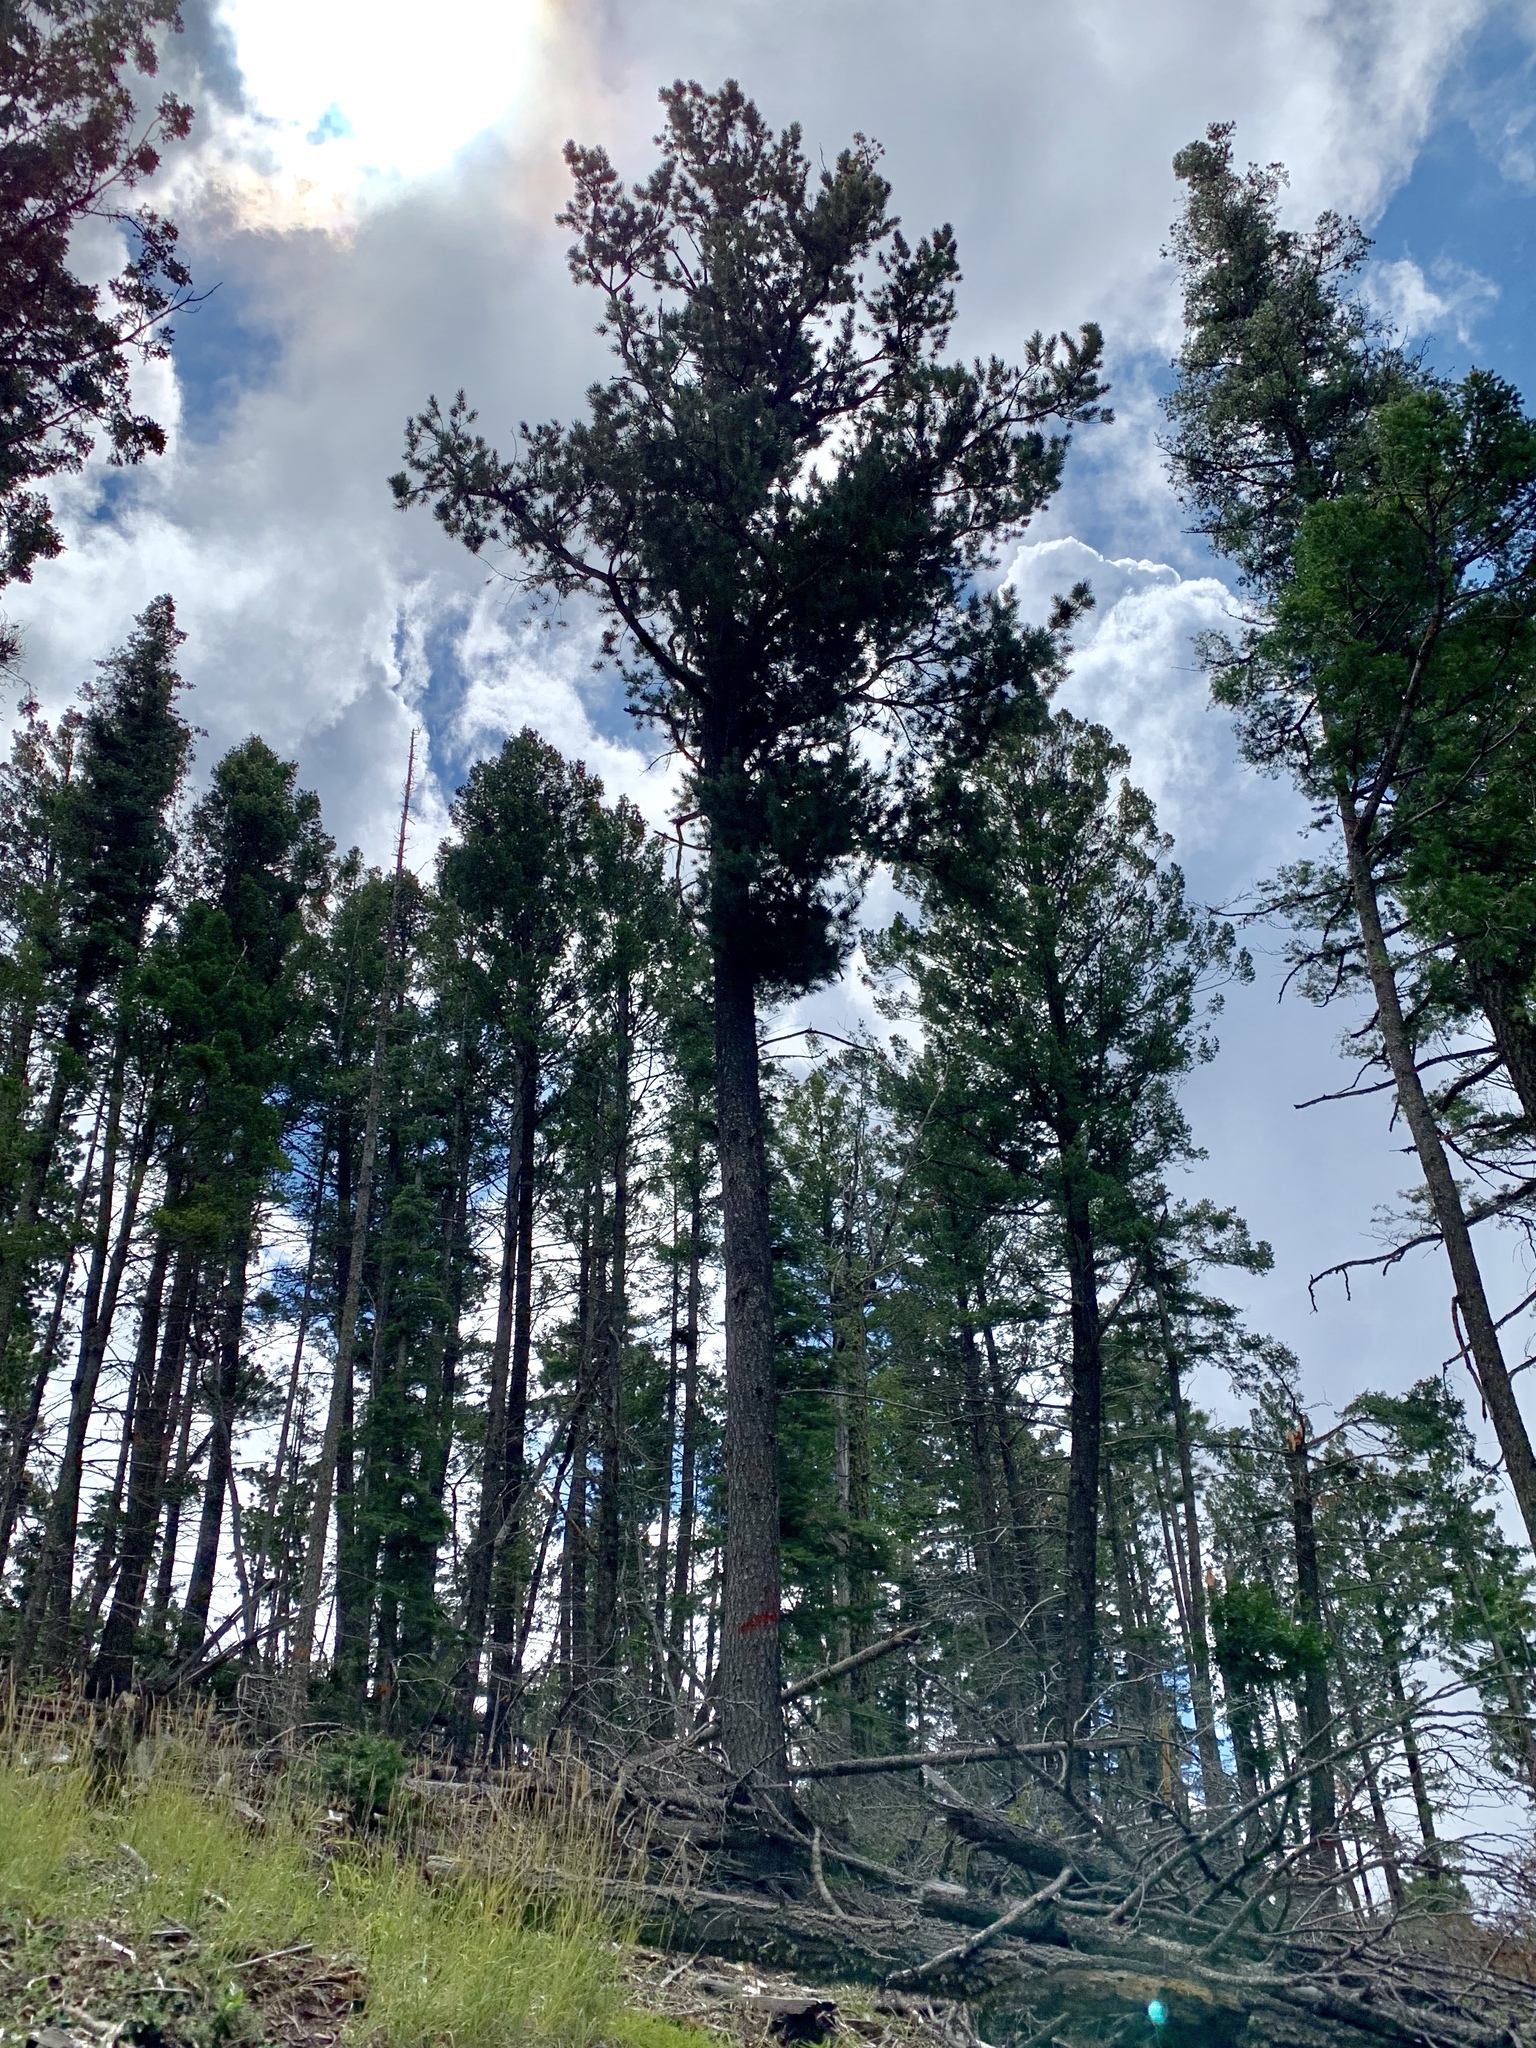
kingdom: Plantae
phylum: Tracheophyta
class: Pinopsida
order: Pinales
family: Pinaceae
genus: Pinus
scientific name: Pinus strobiformis
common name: Southwestern white pine
